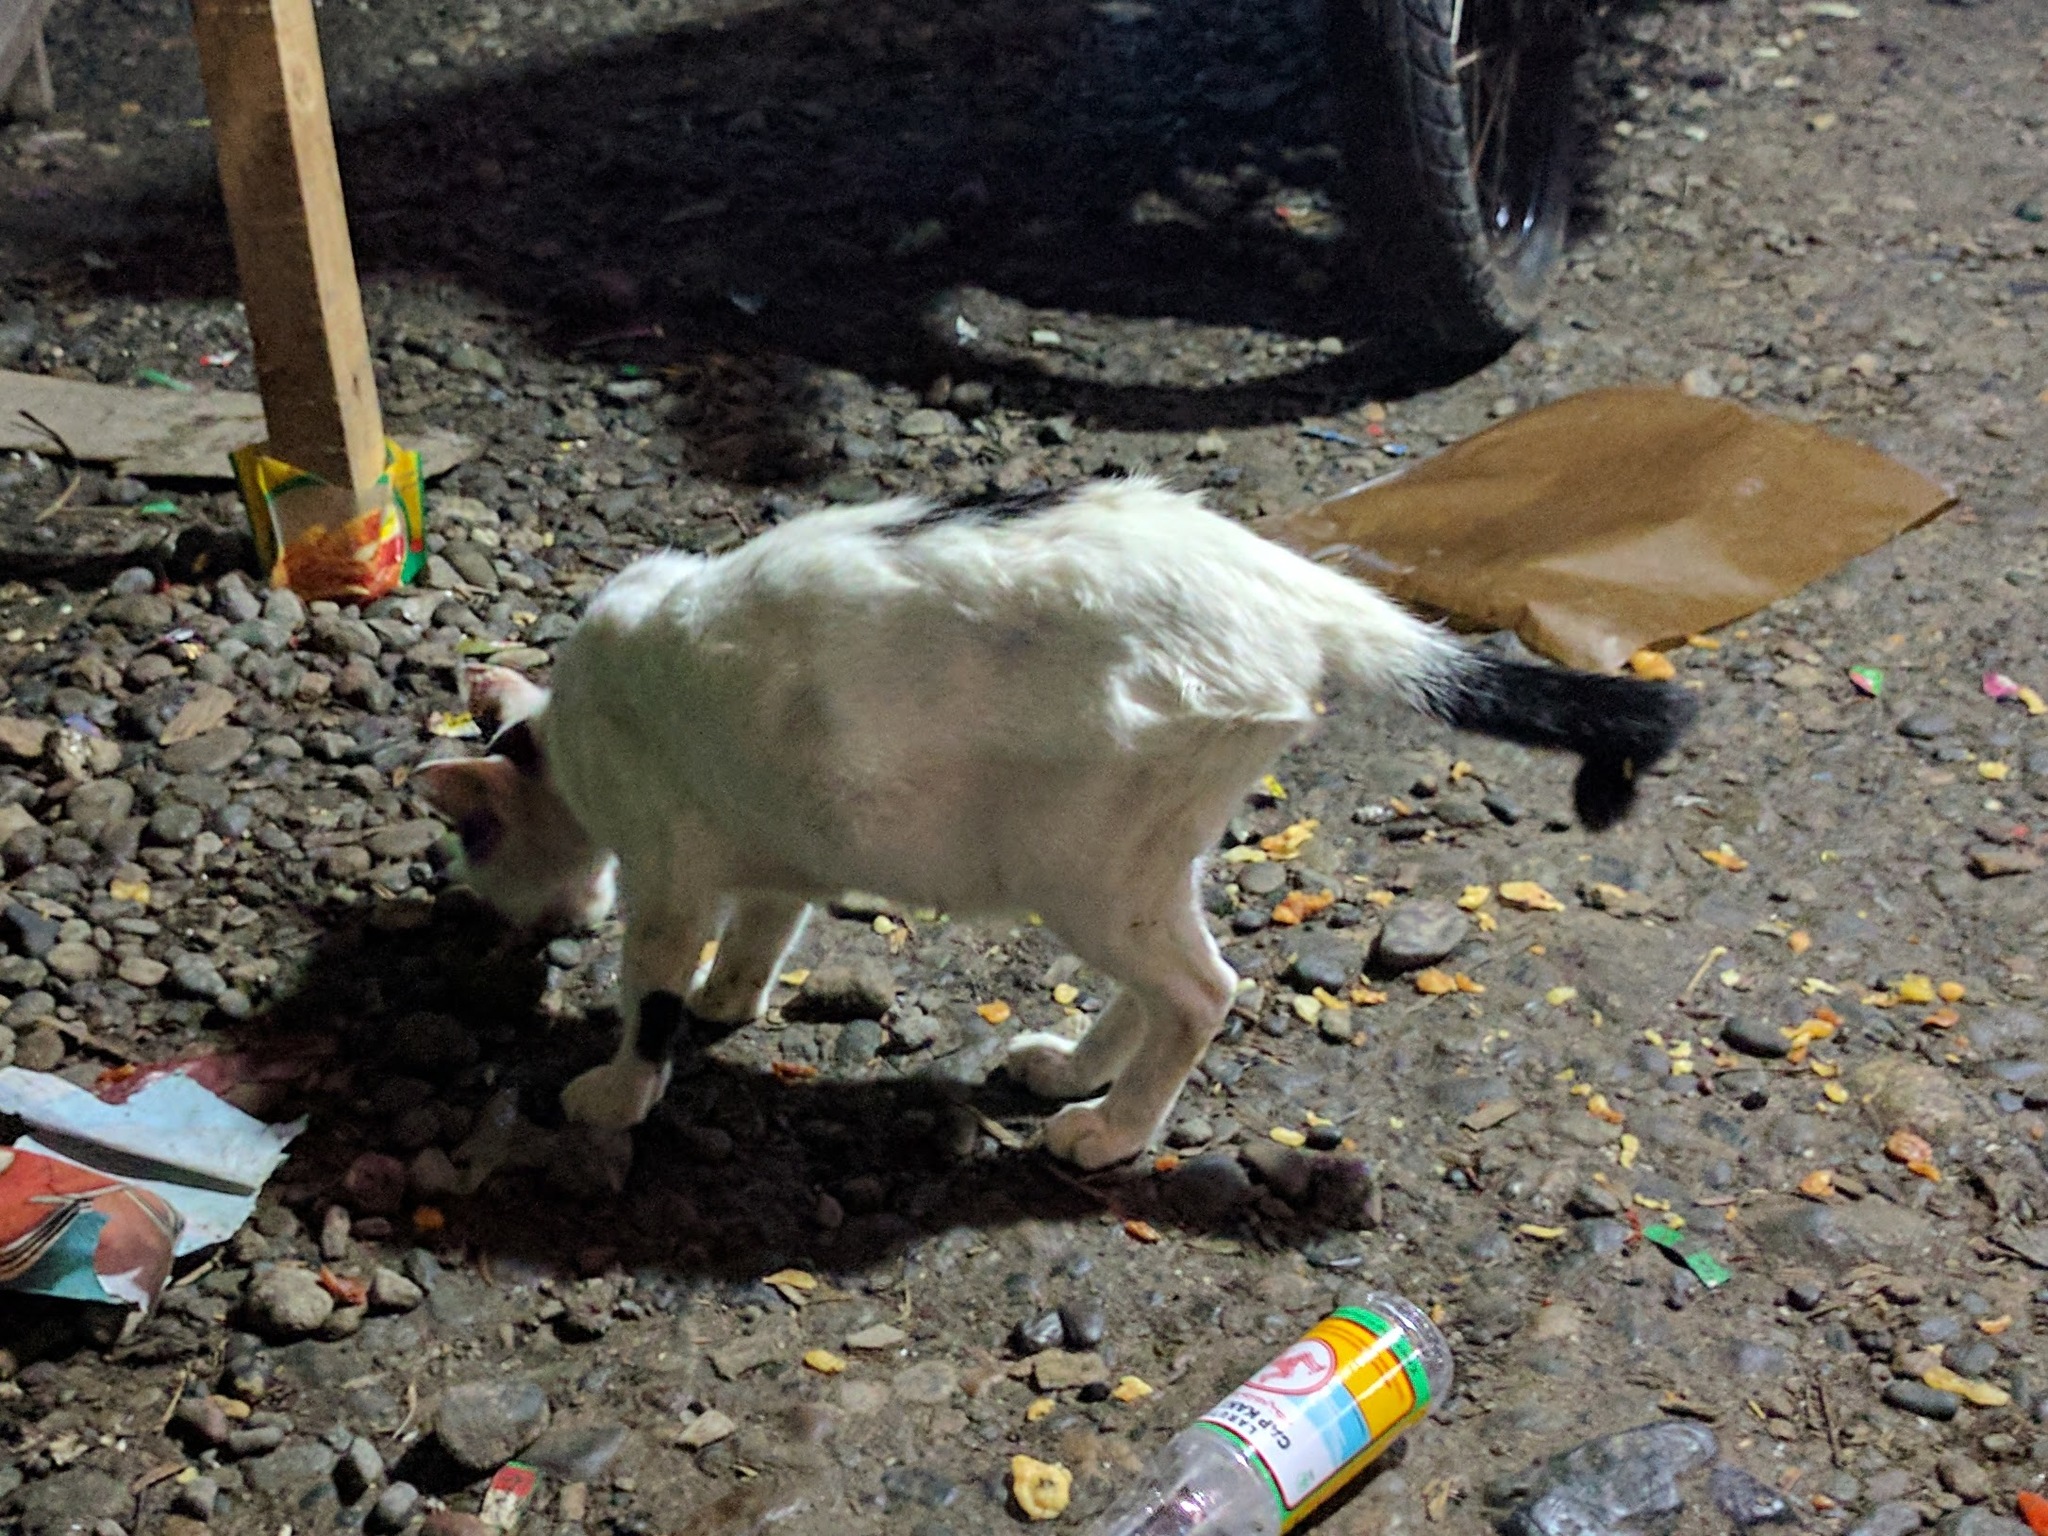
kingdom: Animalia
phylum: Chordata
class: Mammalia
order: Carnivora
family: Felidae
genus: Felis
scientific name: Felis catus
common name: Domestic cat
